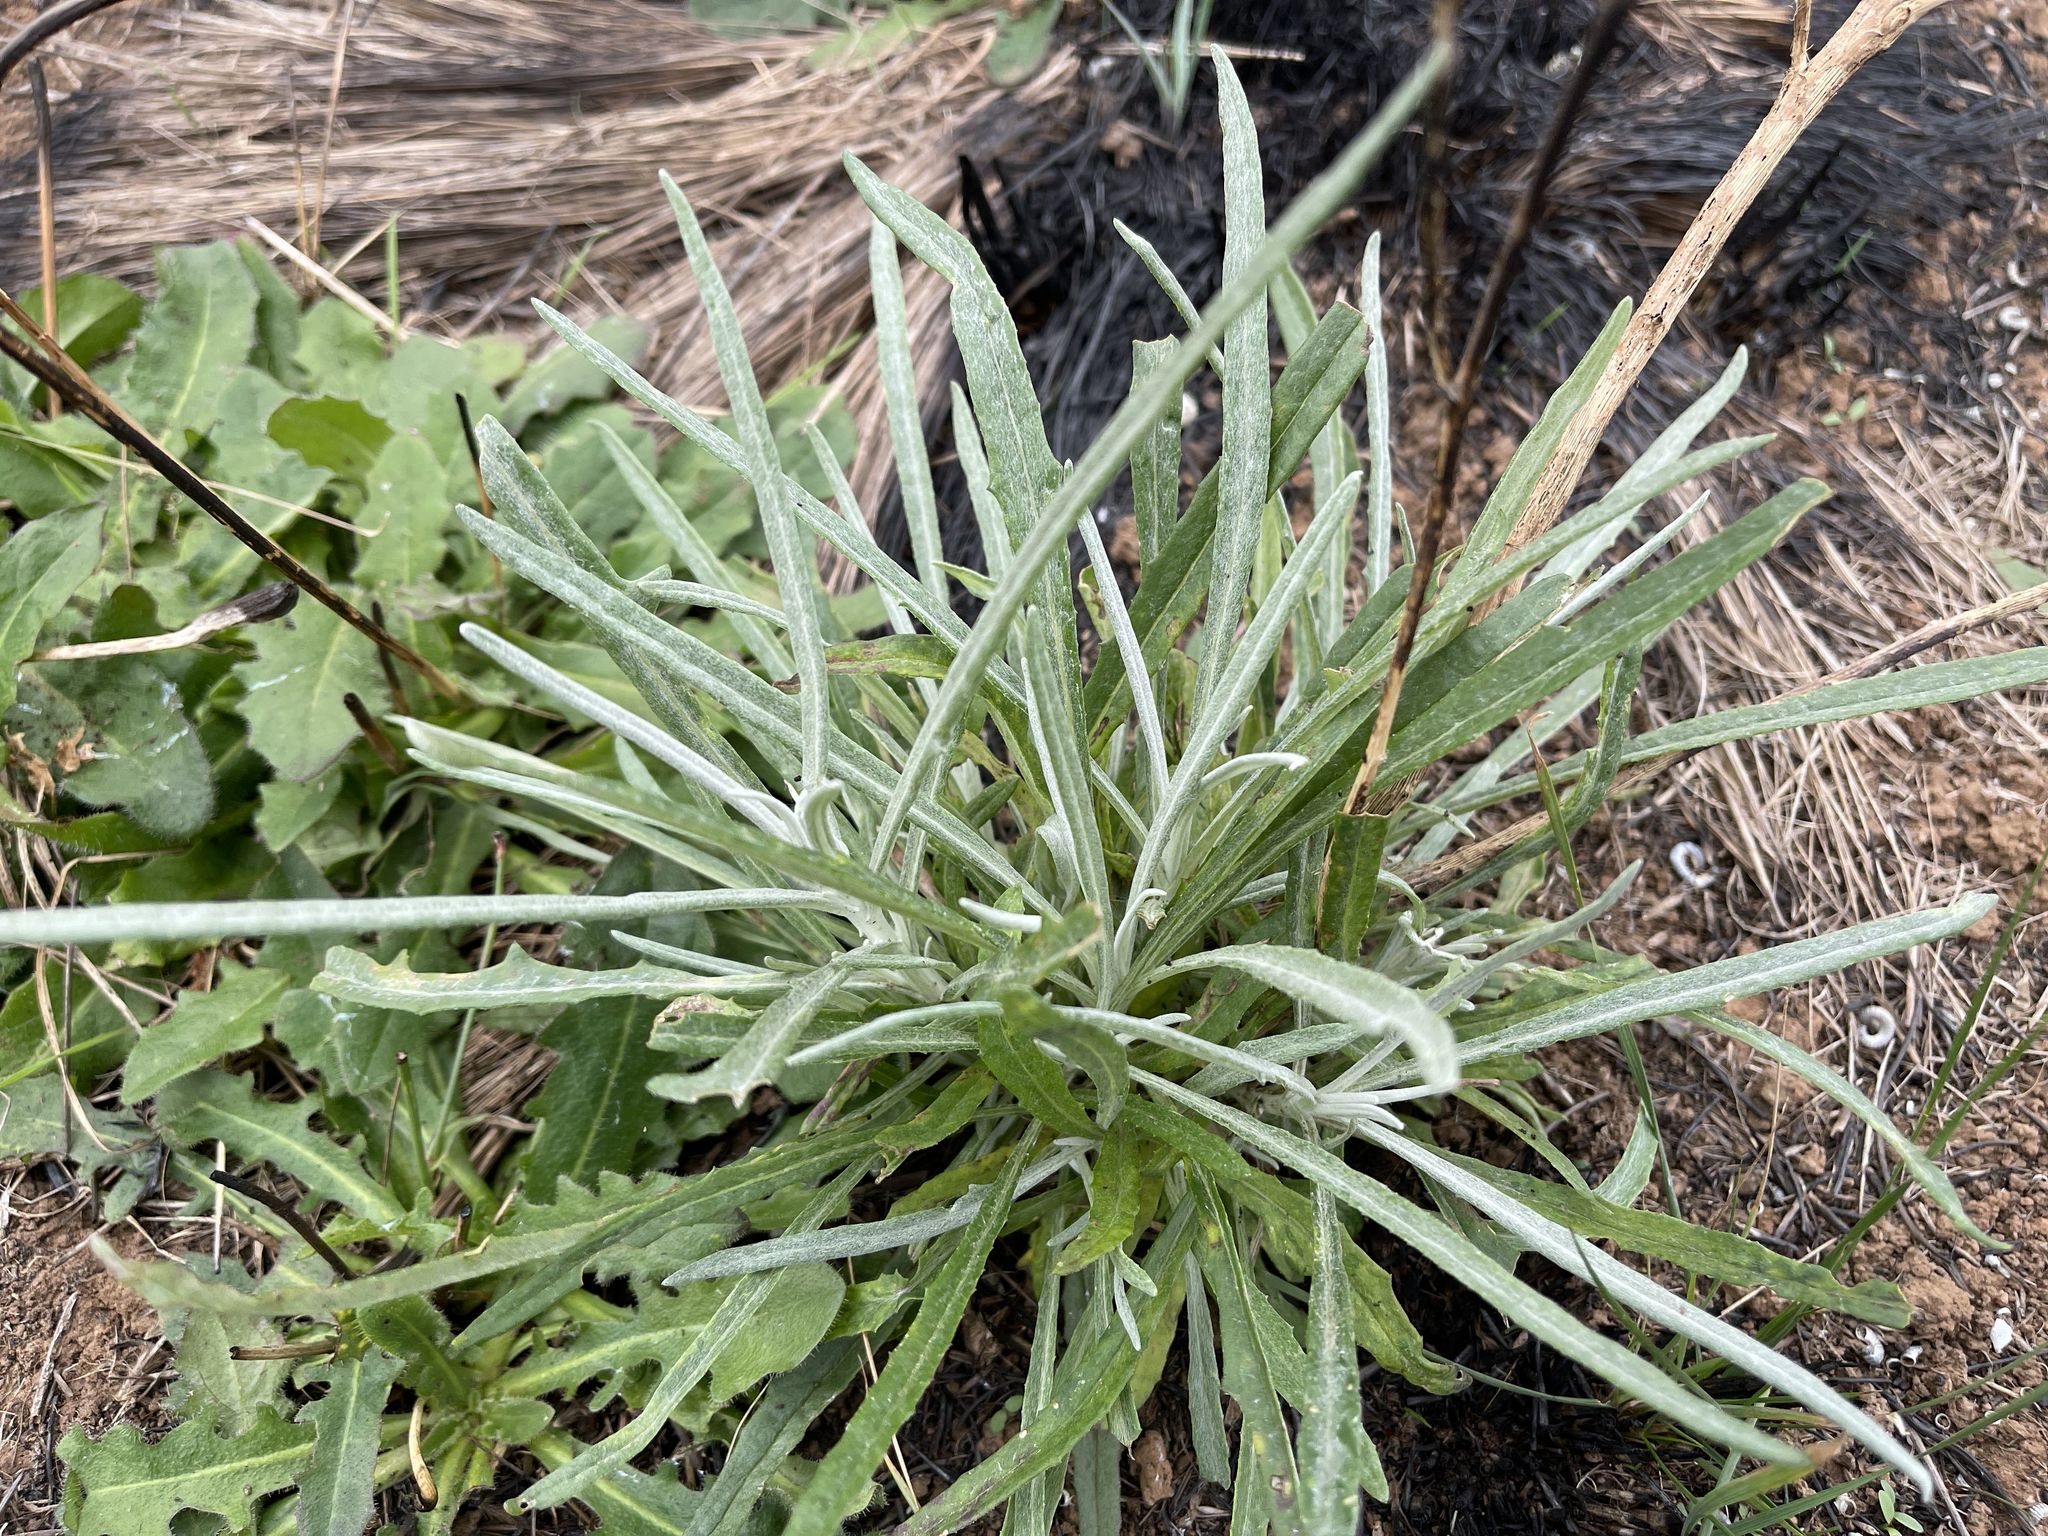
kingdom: Plantae
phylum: Tracheophyta
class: Magnoliopsida
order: Asterales
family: Asteraceae
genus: Senecio
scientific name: Senecio quadridentatus
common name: Cotton fireweed
